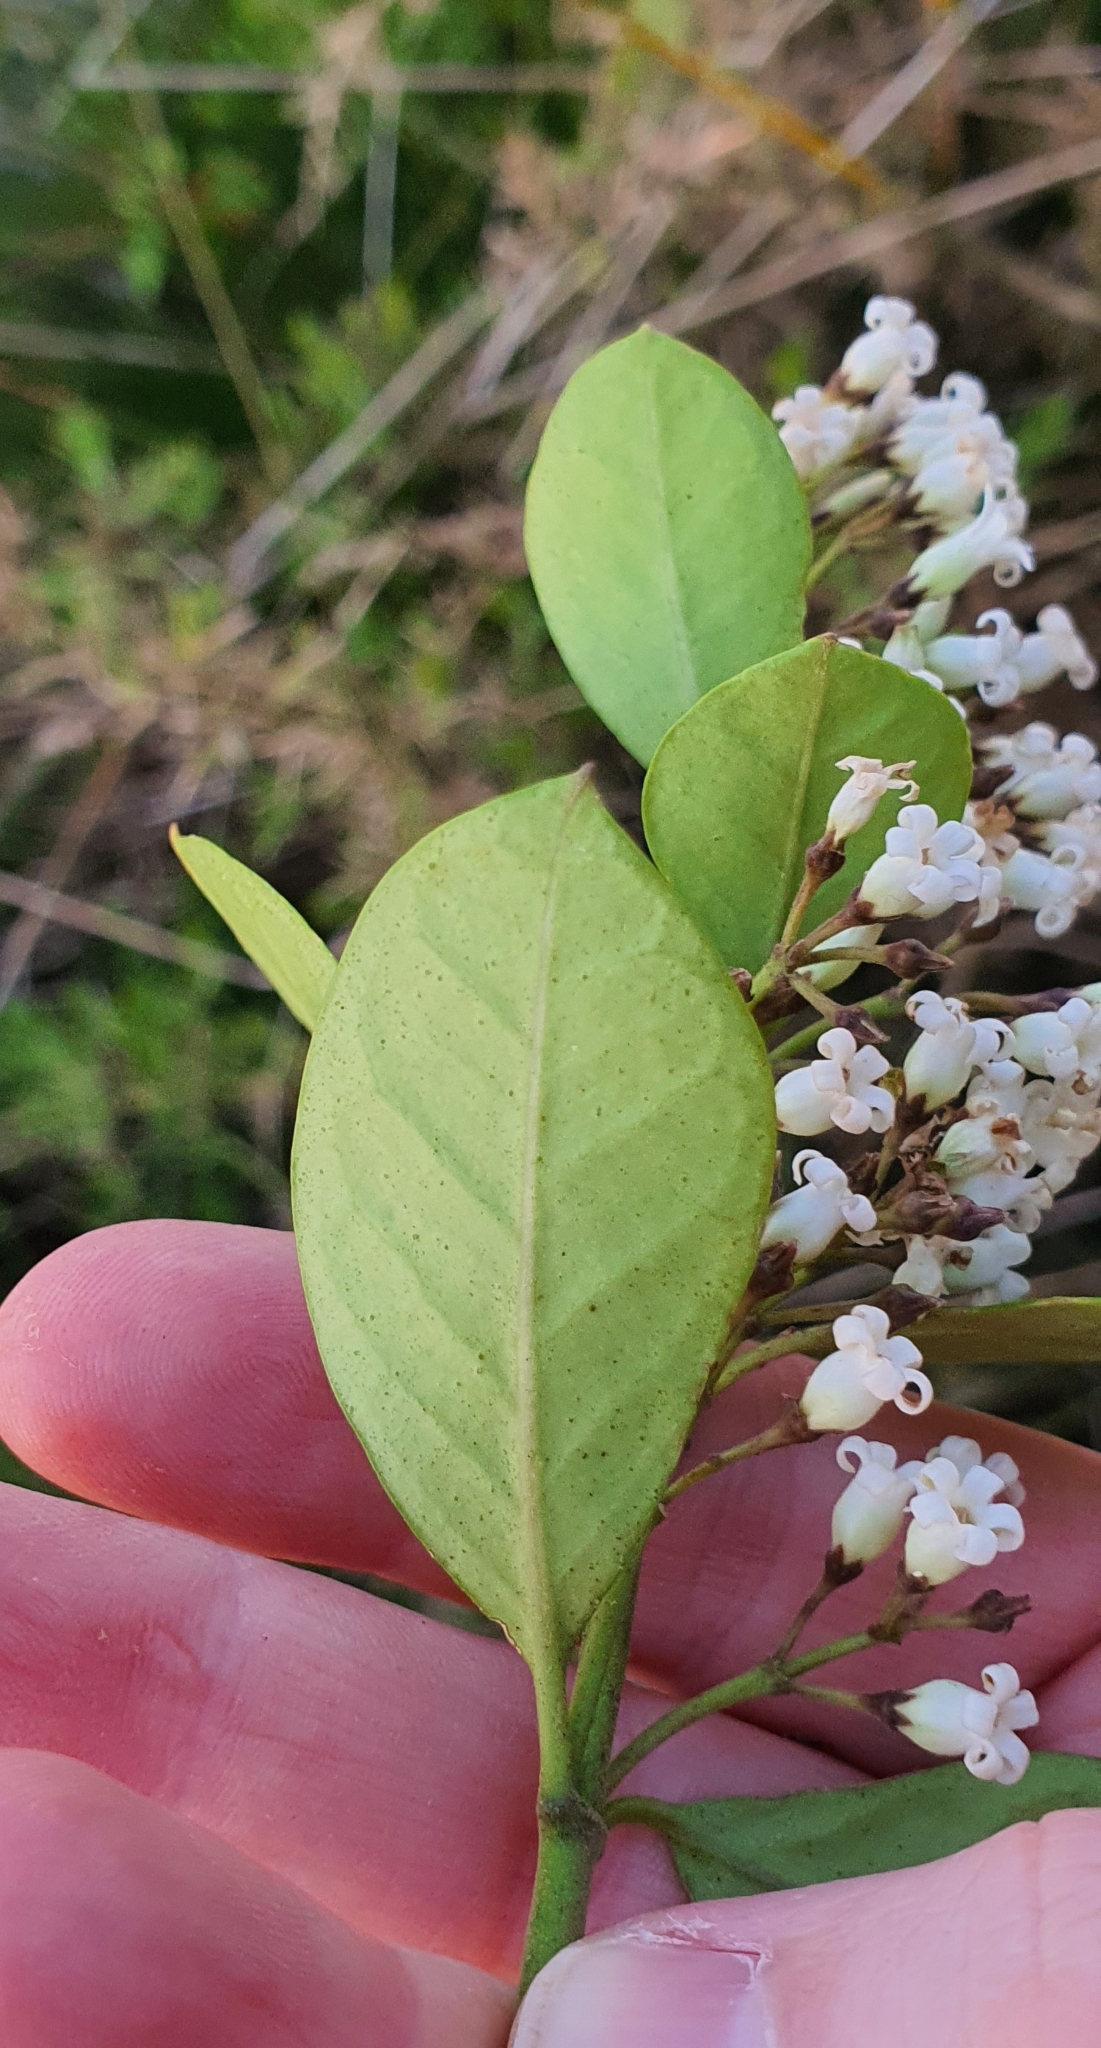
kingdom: Plantae
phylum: Tracheophyta
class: Magnoliopsida
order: Gentianales
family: Apocynaceae
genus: Parsonsia
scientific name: Parsonsia heterophylla
